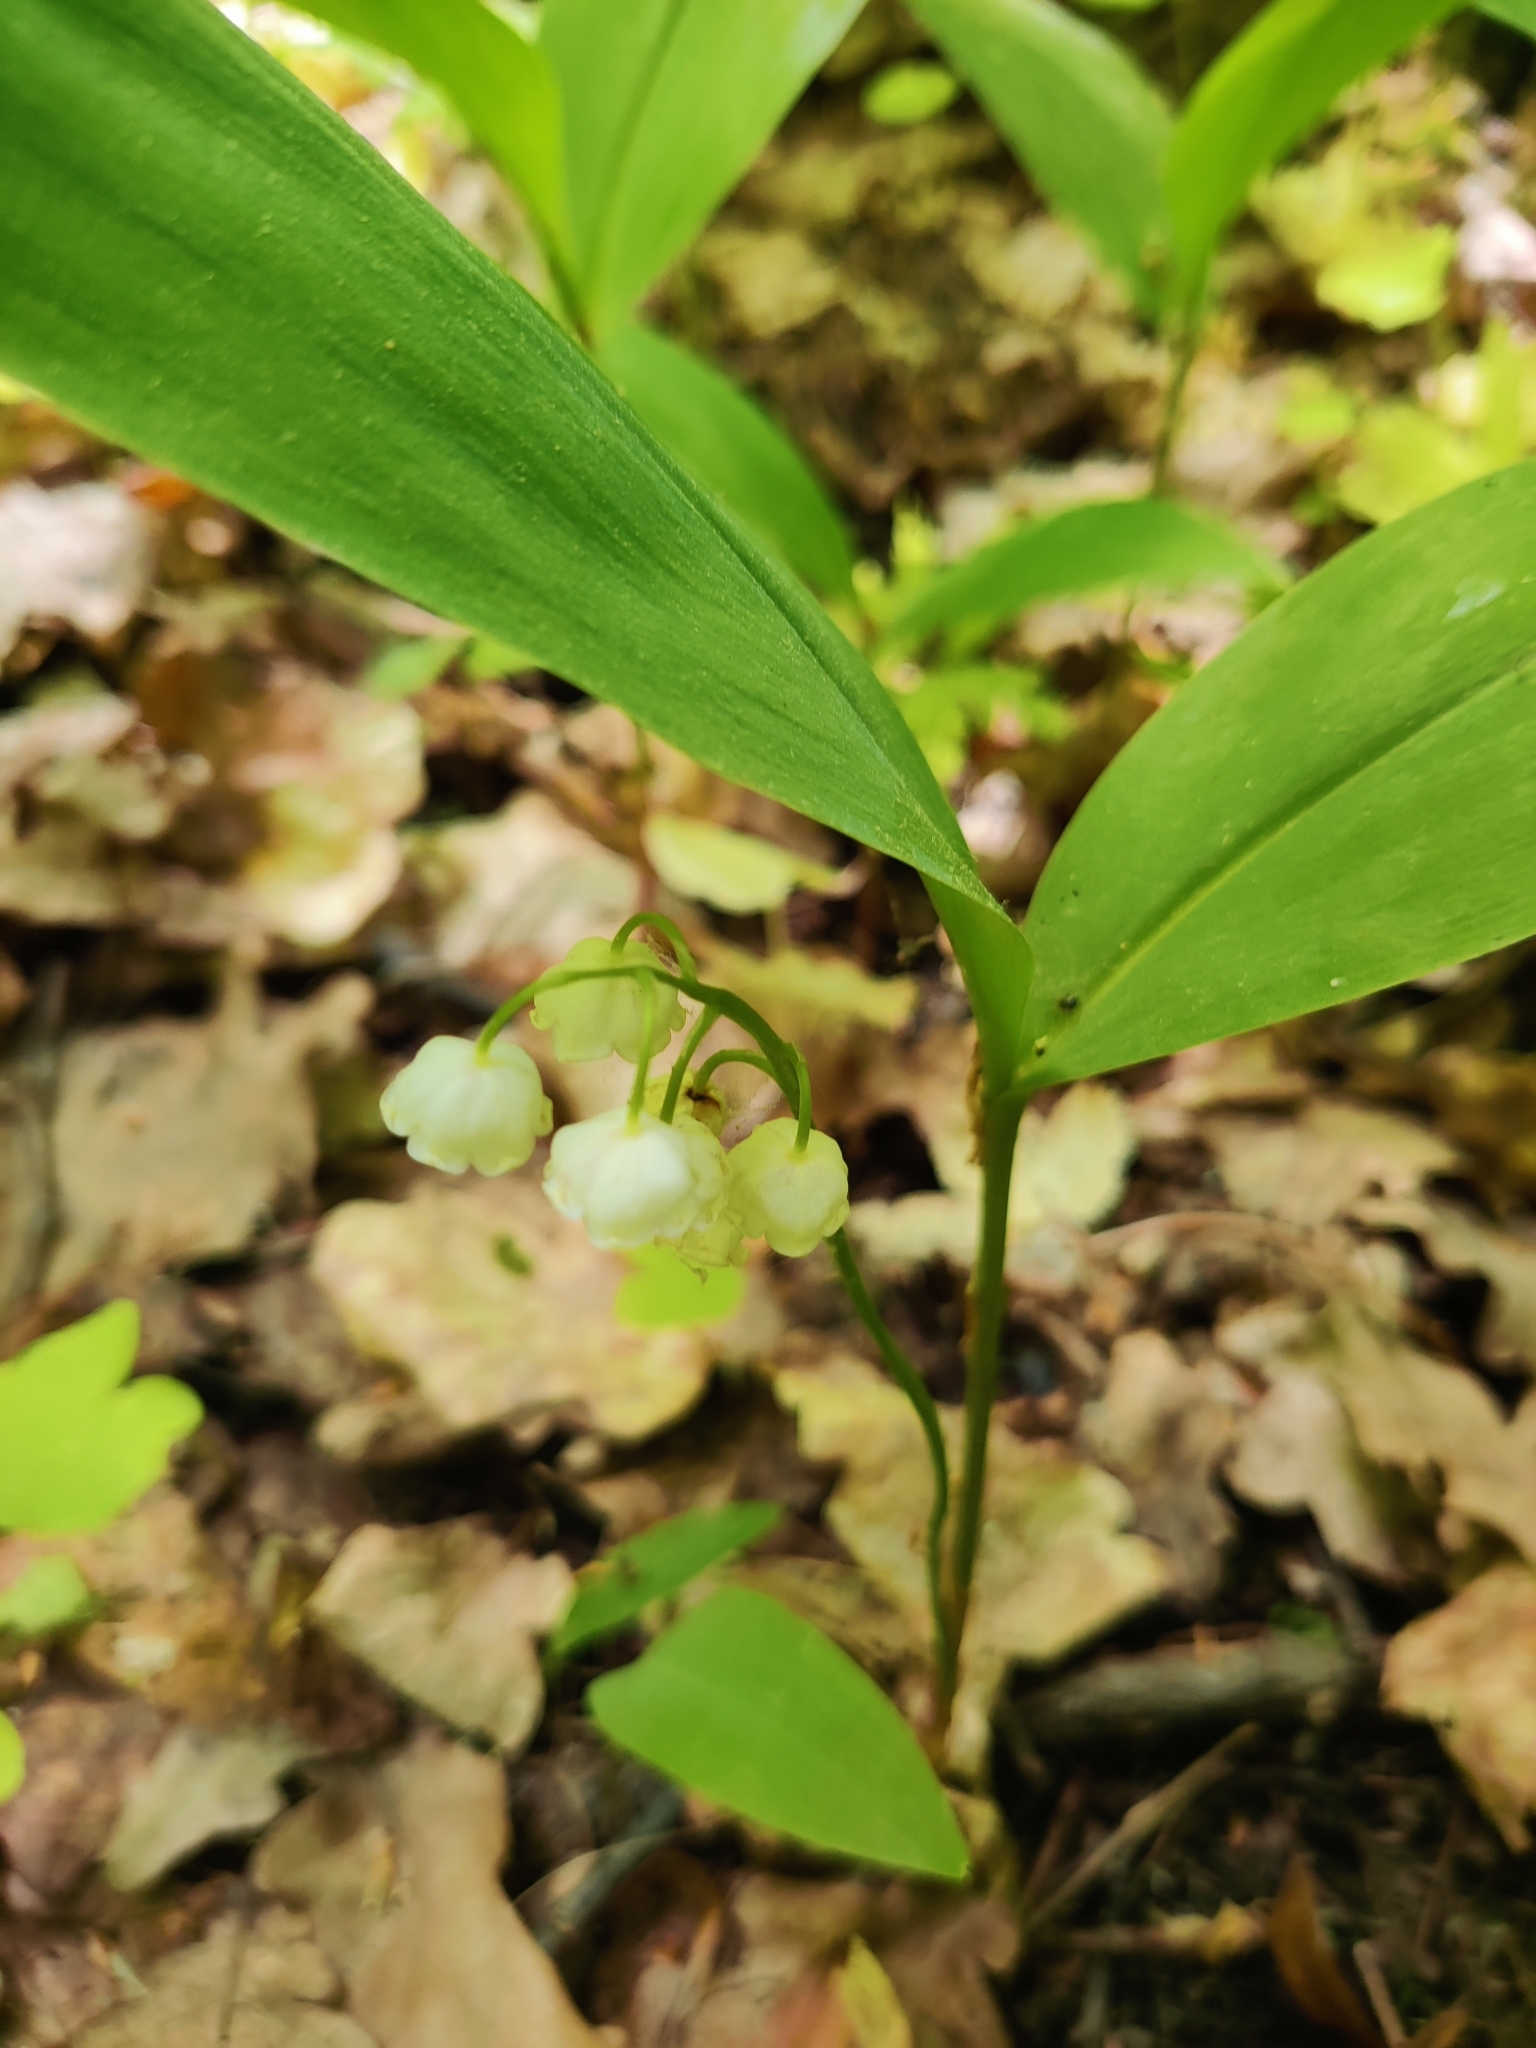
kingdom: Plantae
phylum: Tracheophyta
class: Liliopsida
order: Asparagales
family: Asparagaceae
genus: Convallaria
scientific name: Convallaria majalis
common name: Lily-of-the-valley
